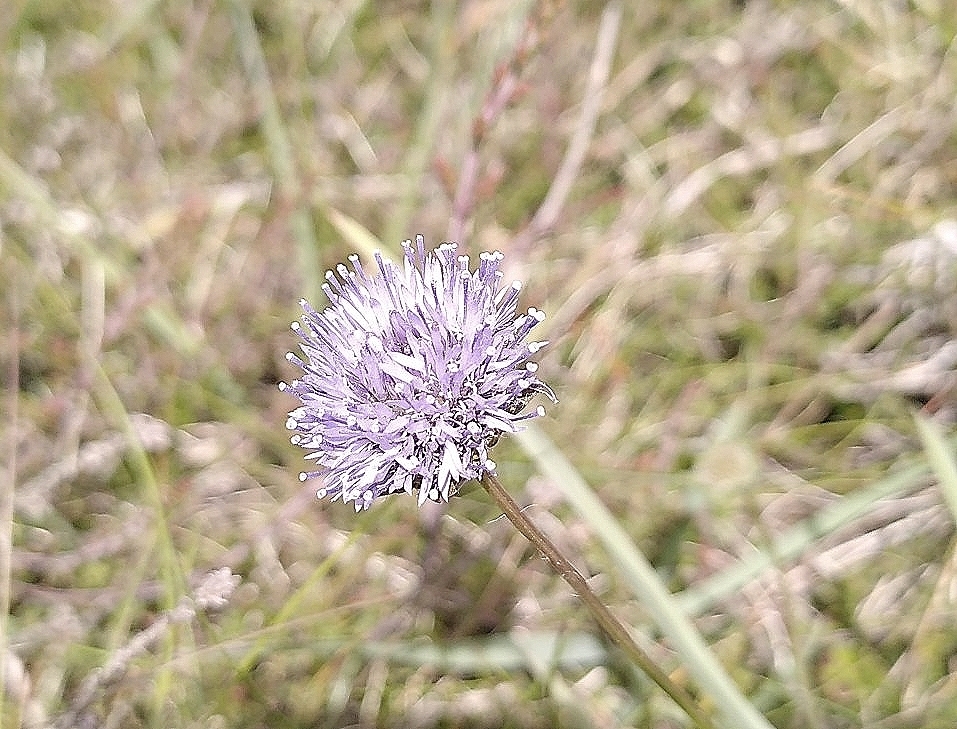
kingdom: Plantae
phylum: Tracheophyta
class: Magnoliopsida
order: Asterales
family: Campanulaceae
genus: Jasione
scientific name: Jasione montana
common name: Sheep's-bit
